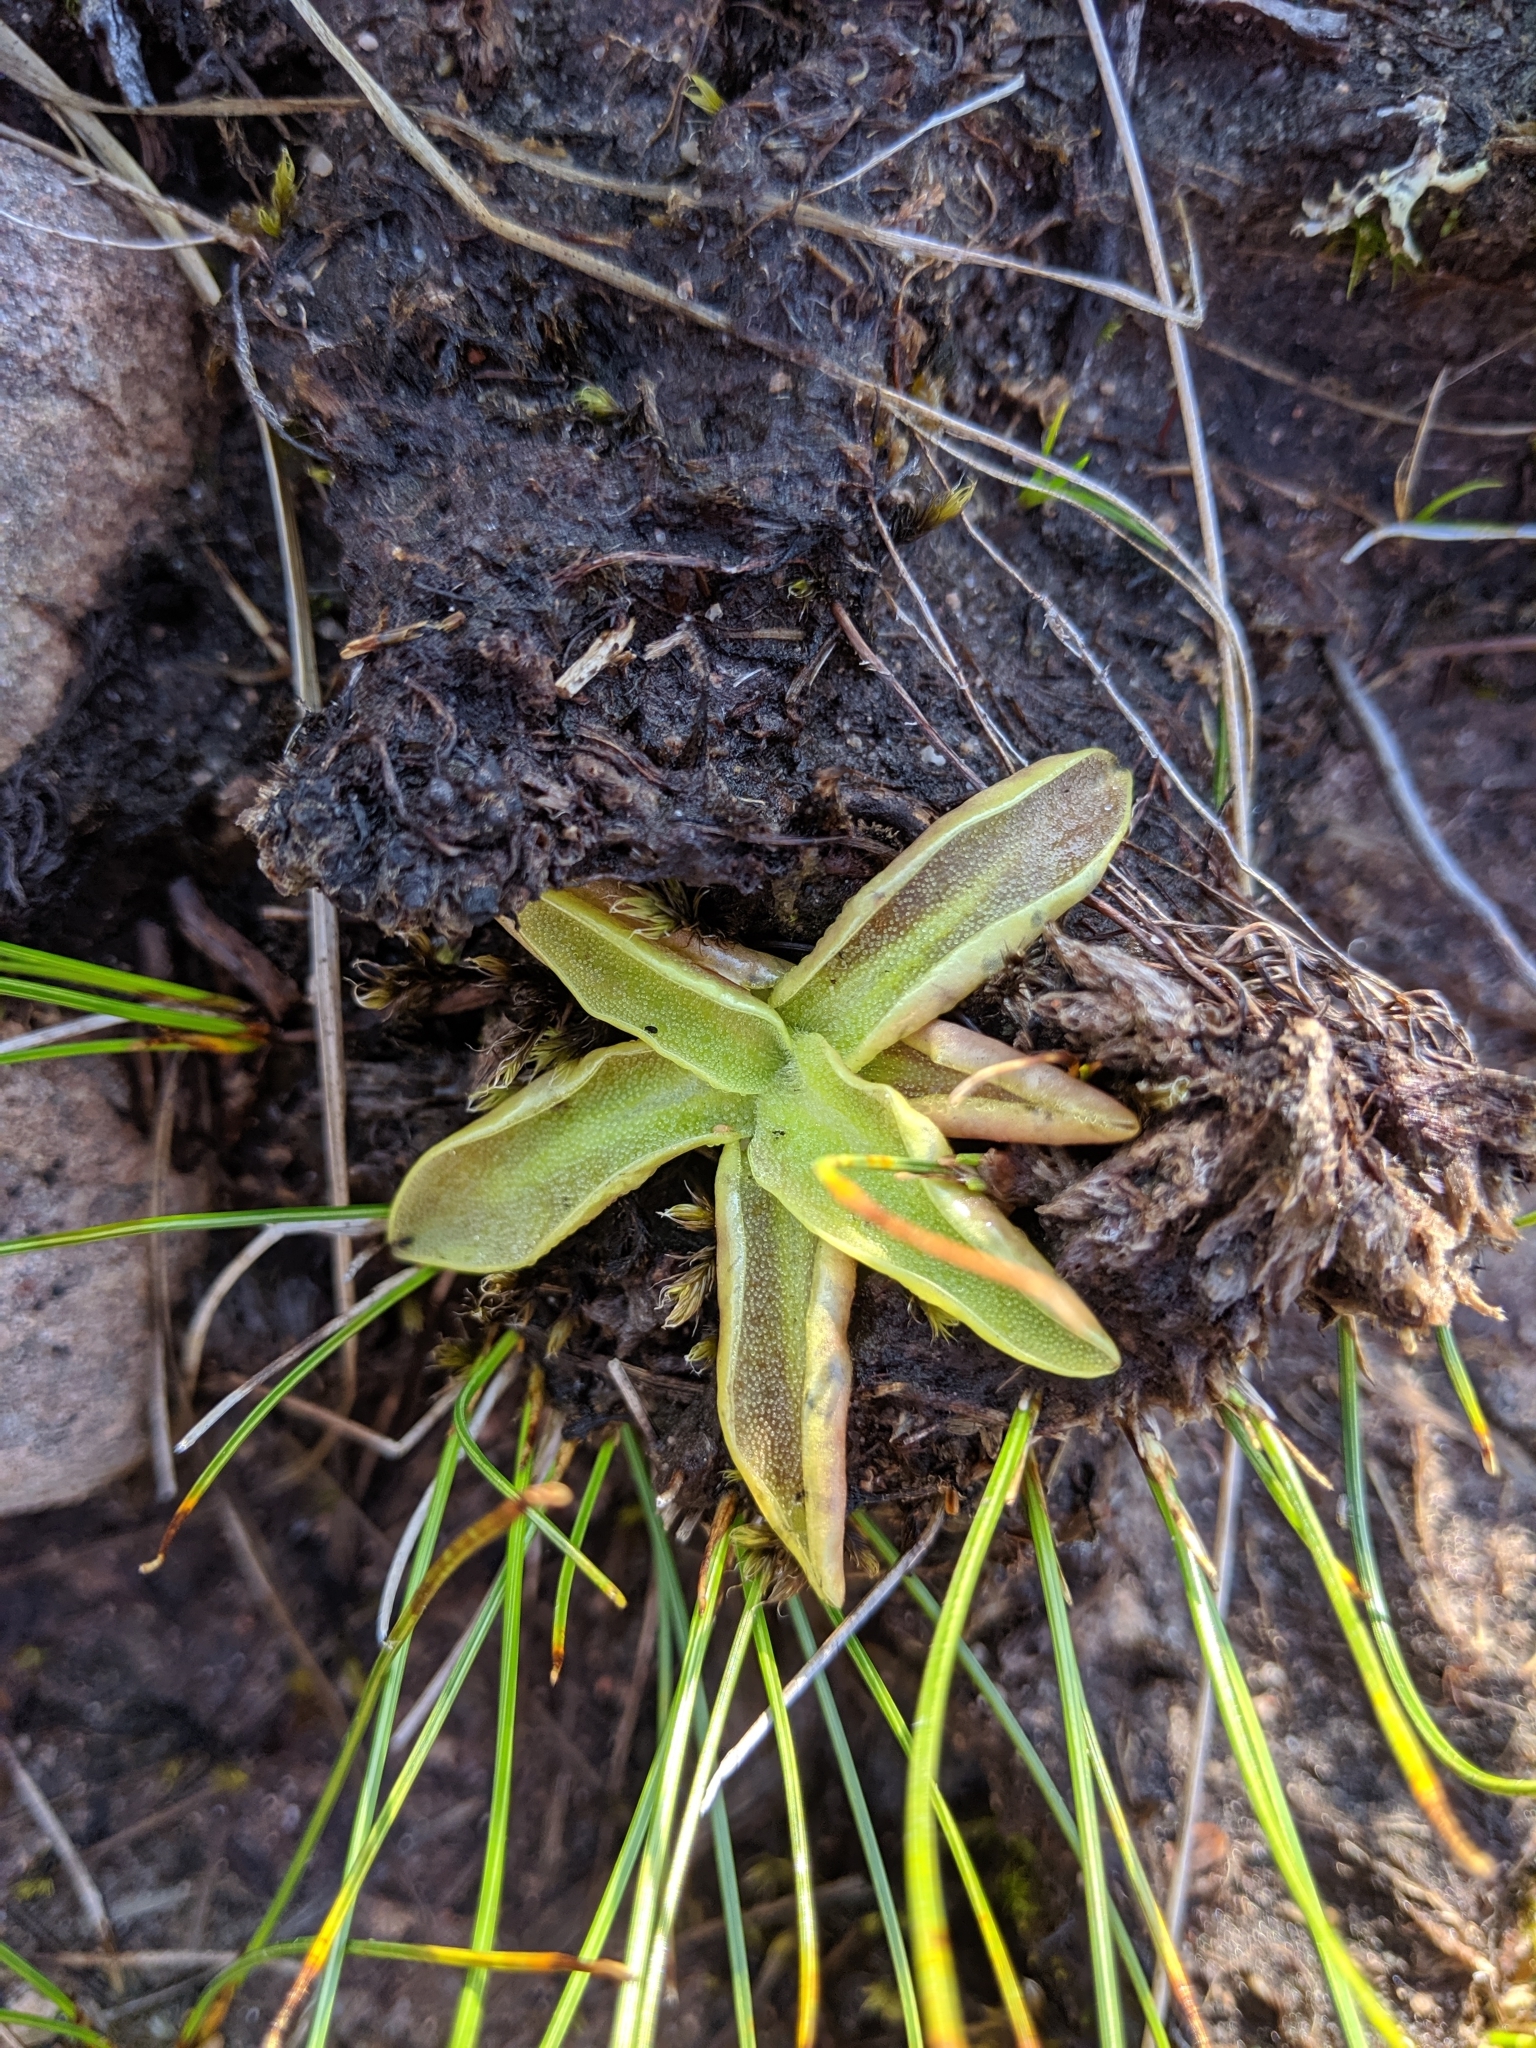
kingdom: Plantae
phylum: Tracheophyta
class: Magnoliopsida
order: Lamiales
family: Lentibulariaceae
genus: Pinguicula
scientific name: Pinguicula vulgaris
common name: Common butterwort
